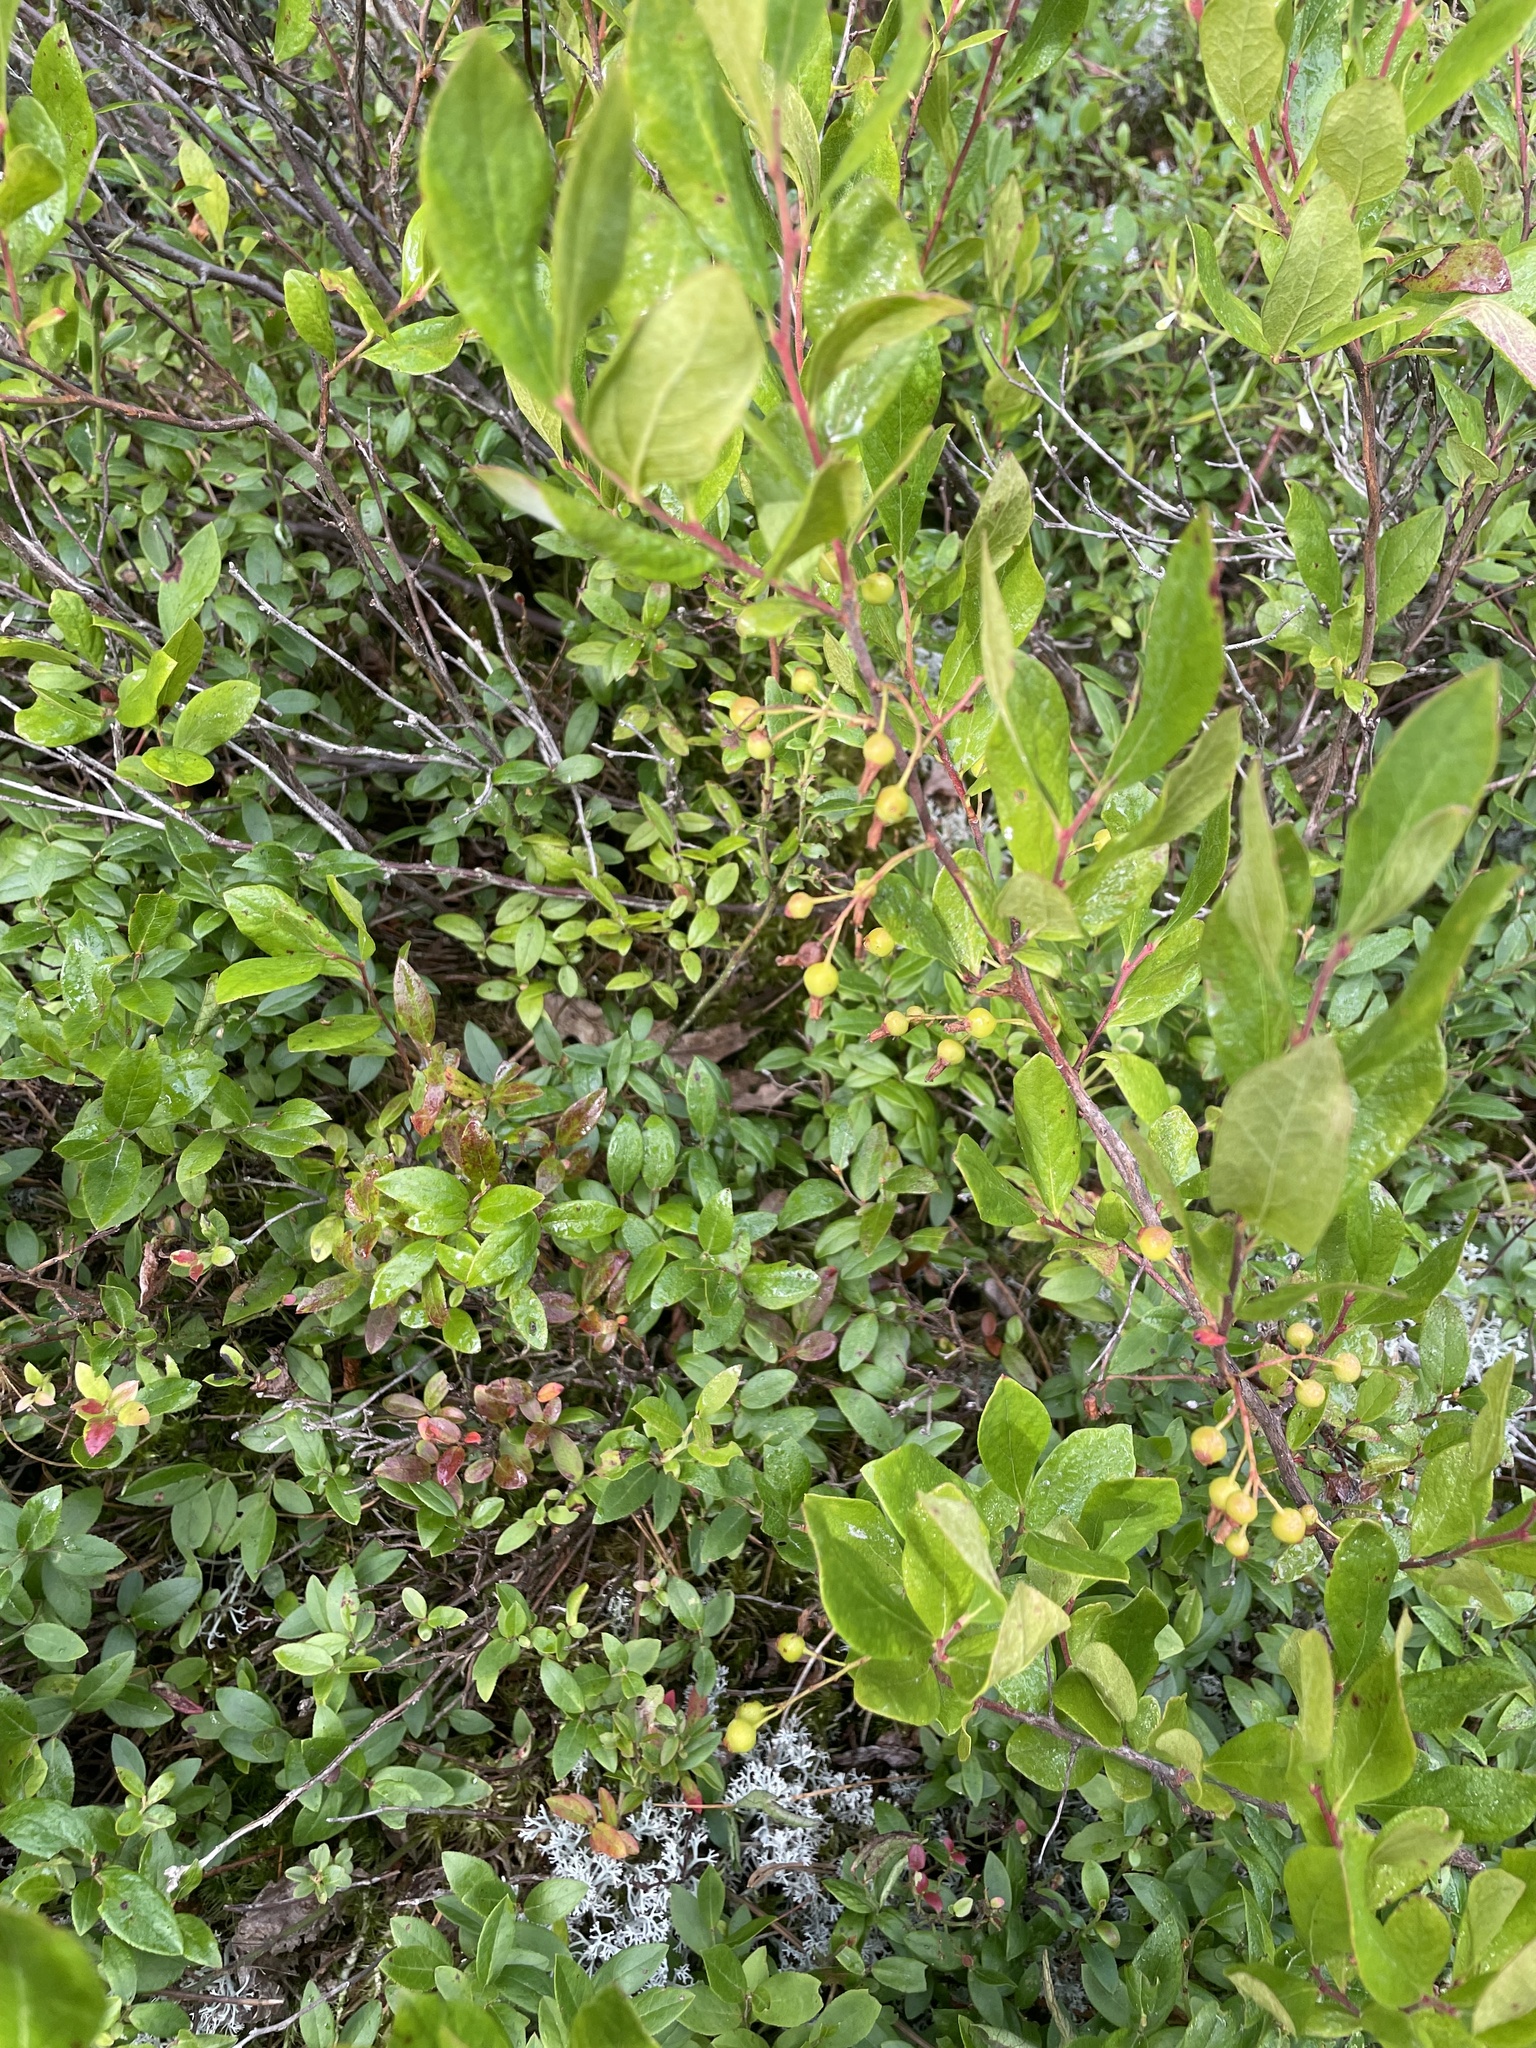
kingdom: Plantae
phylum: Tracheophyta
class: Magnoliopsida
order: Ericales
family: Ericaceae
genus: Gaylussacia
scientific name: Gaylussacia baccata
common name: Black huckleberry
